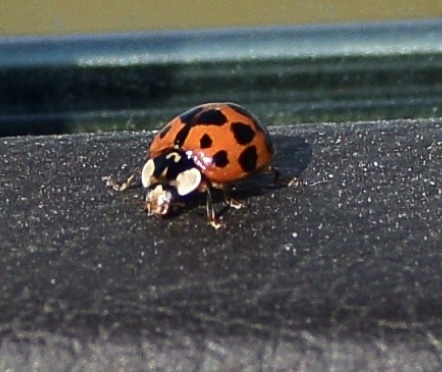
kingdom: Animalia
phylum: Arthropoda
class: Insecta
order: Coleoptera
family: Coccinellidae
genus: Harmonia
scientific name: Harmonia axyridis
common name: Harlequin ladybird
